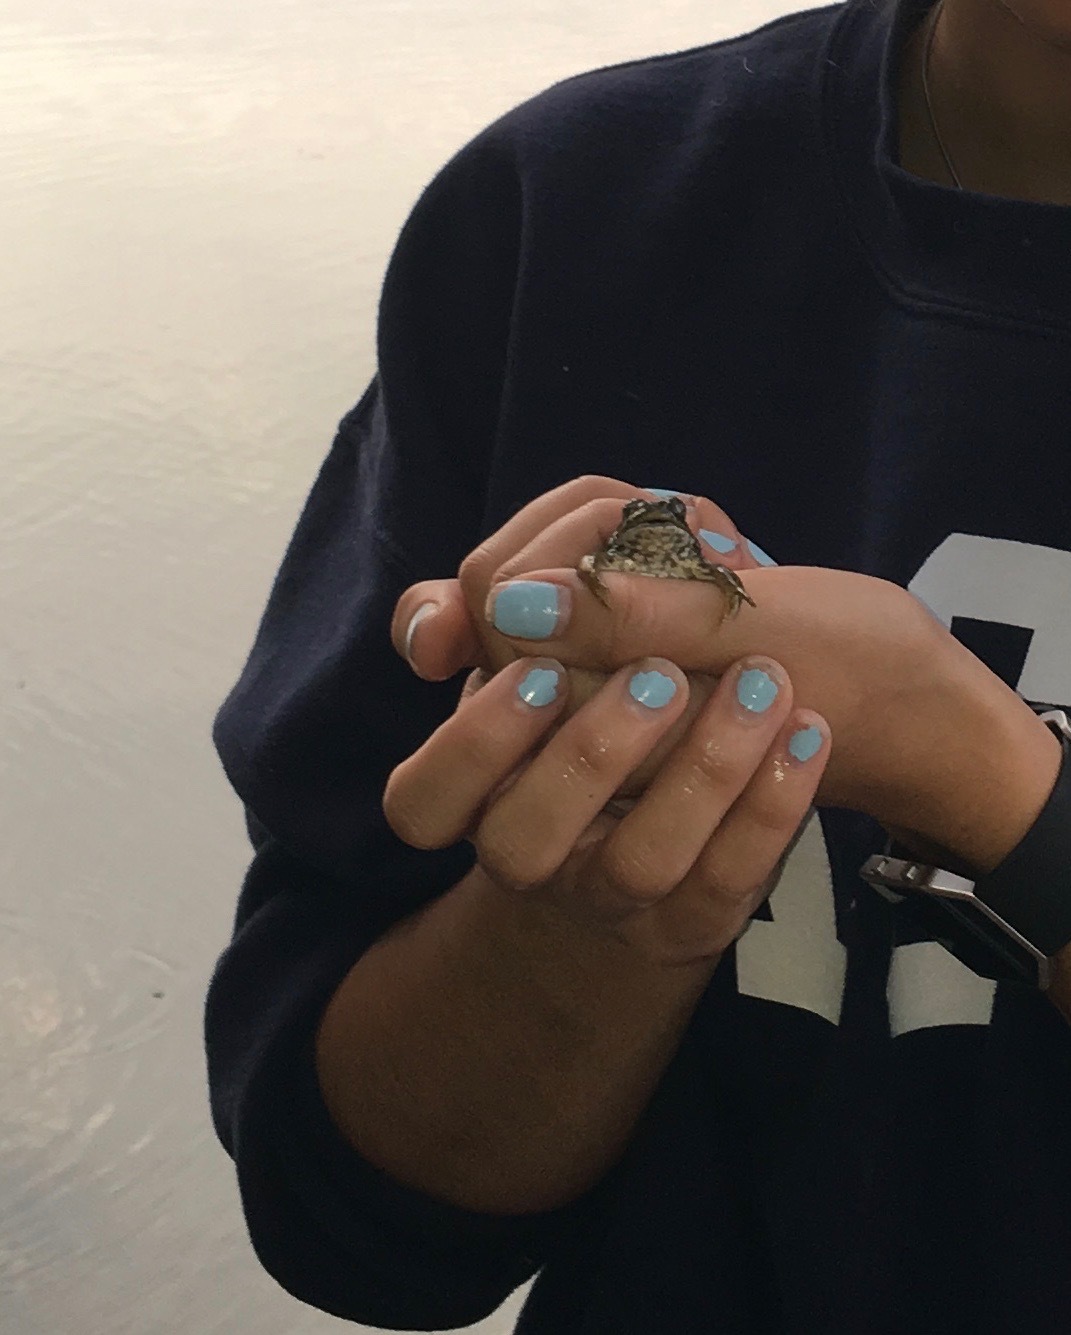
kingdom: Animalia
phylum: Chordata
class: Amphibia
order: Anura
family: Ranidae
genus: Lithobates
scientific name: Lithobates catesbeianus
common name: American bullfrog
